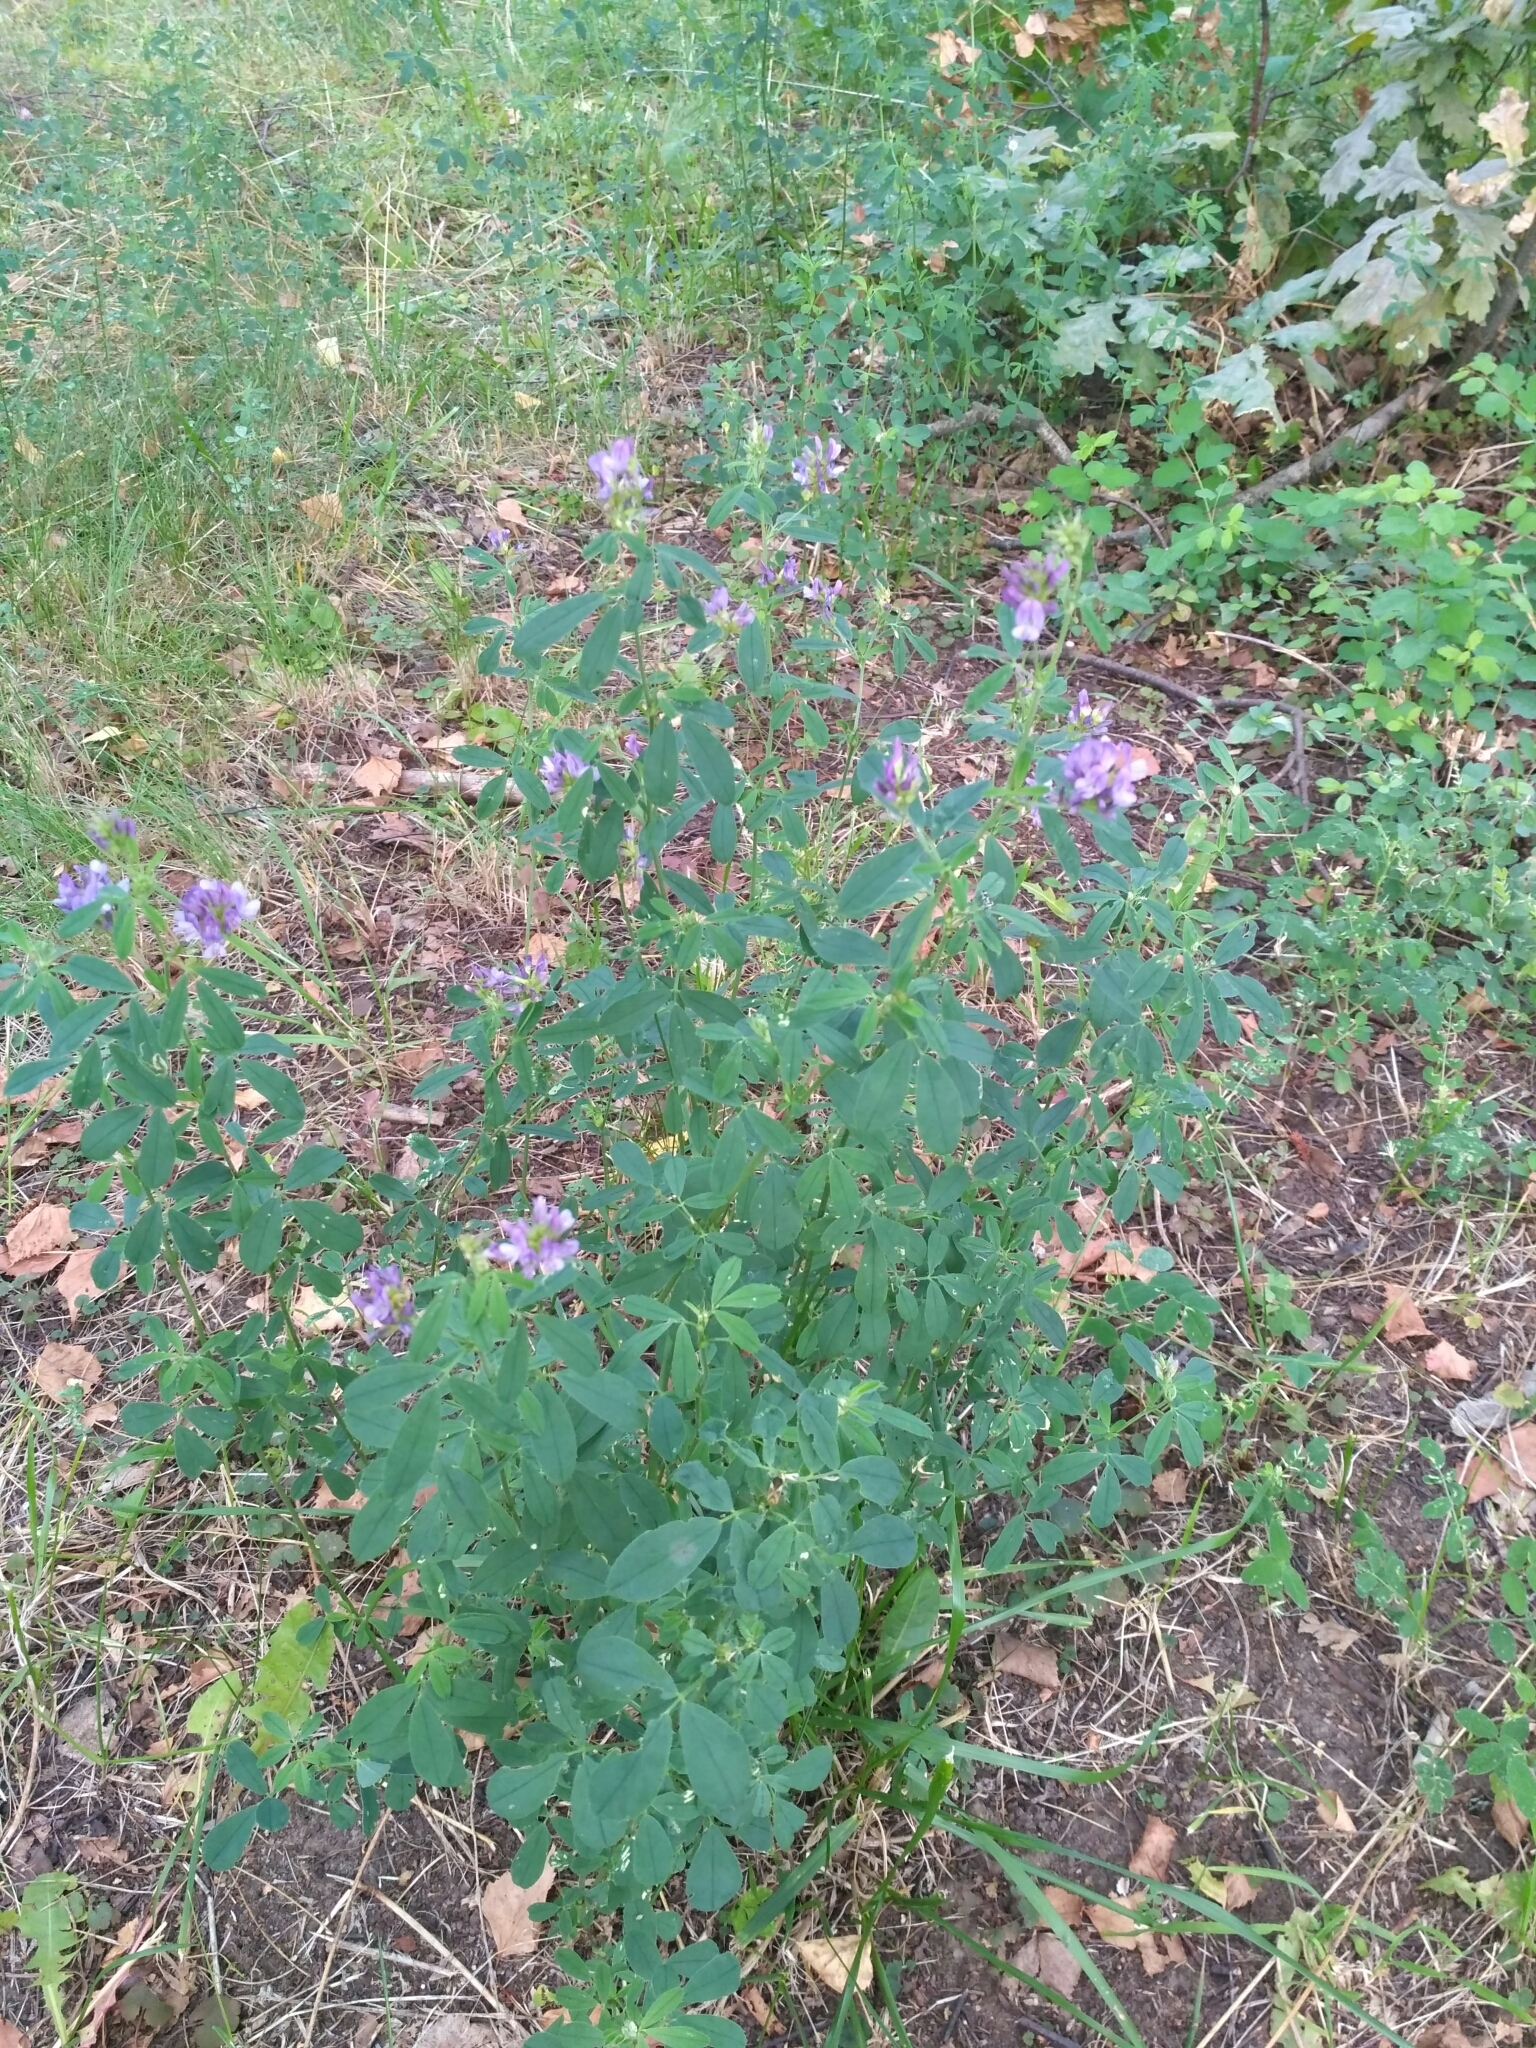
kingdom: Plantae
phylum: Tracheophyta
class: Magnoliopsida
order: Fabales
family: Fabaceae
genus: Medicago
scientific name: Medicago sativa
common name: Alfalfa
